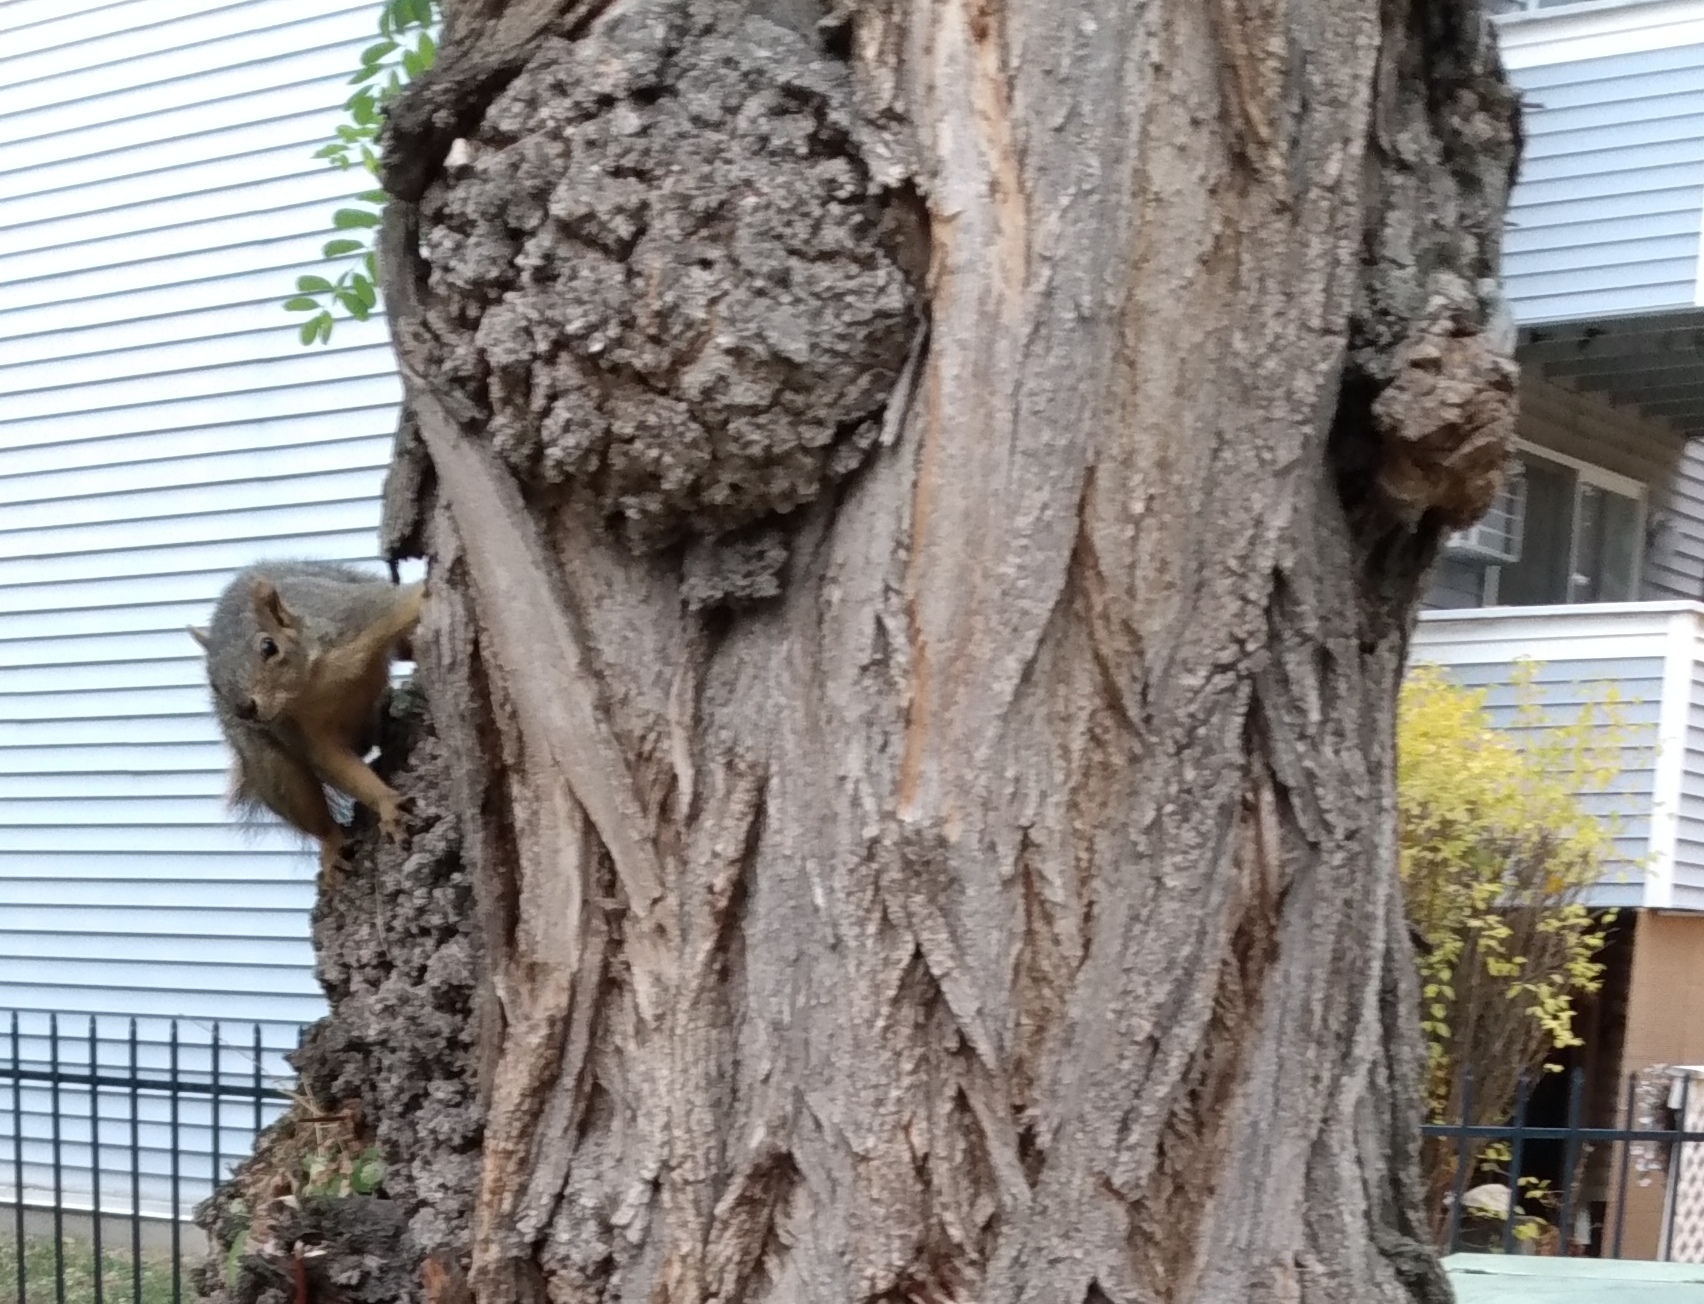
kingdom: Animalia
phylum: Chordata
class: Mammalia
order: Rodentia
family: Sciuridae
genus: Sciurus
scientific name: Sciurus niger
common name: Fox squirrel
